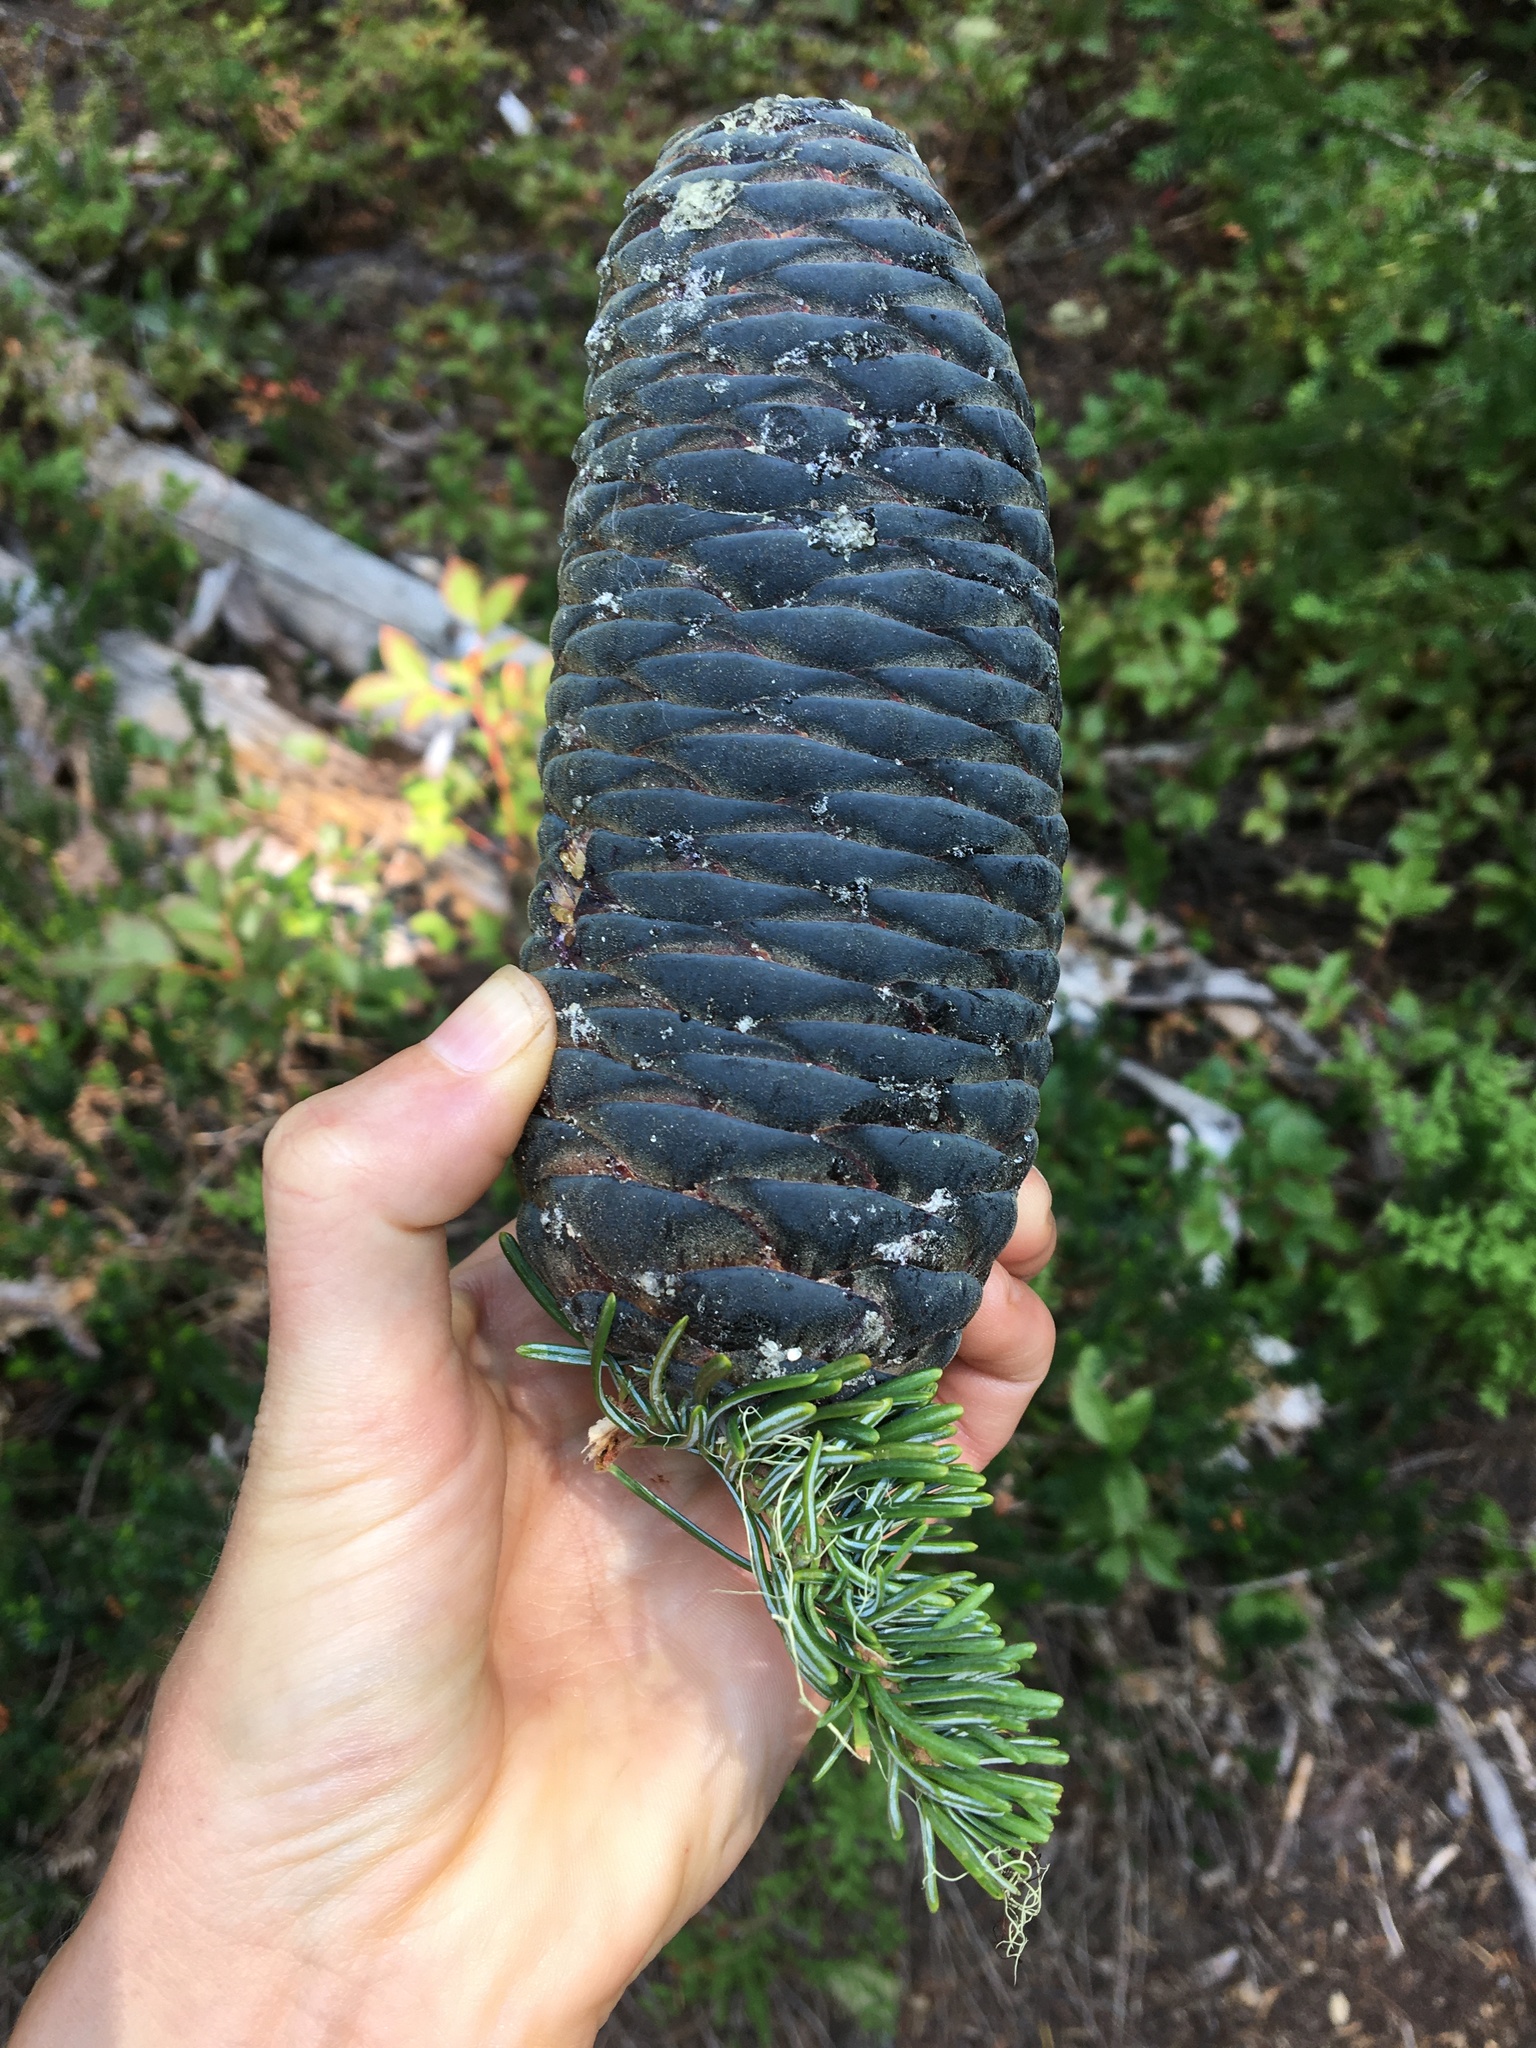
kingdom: Plantae
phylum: Tracheophyta
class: Pinopsida
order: Pinales
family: Pinaceae
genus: Abies
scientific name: Abies amabilis
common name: Pacific silver fir
